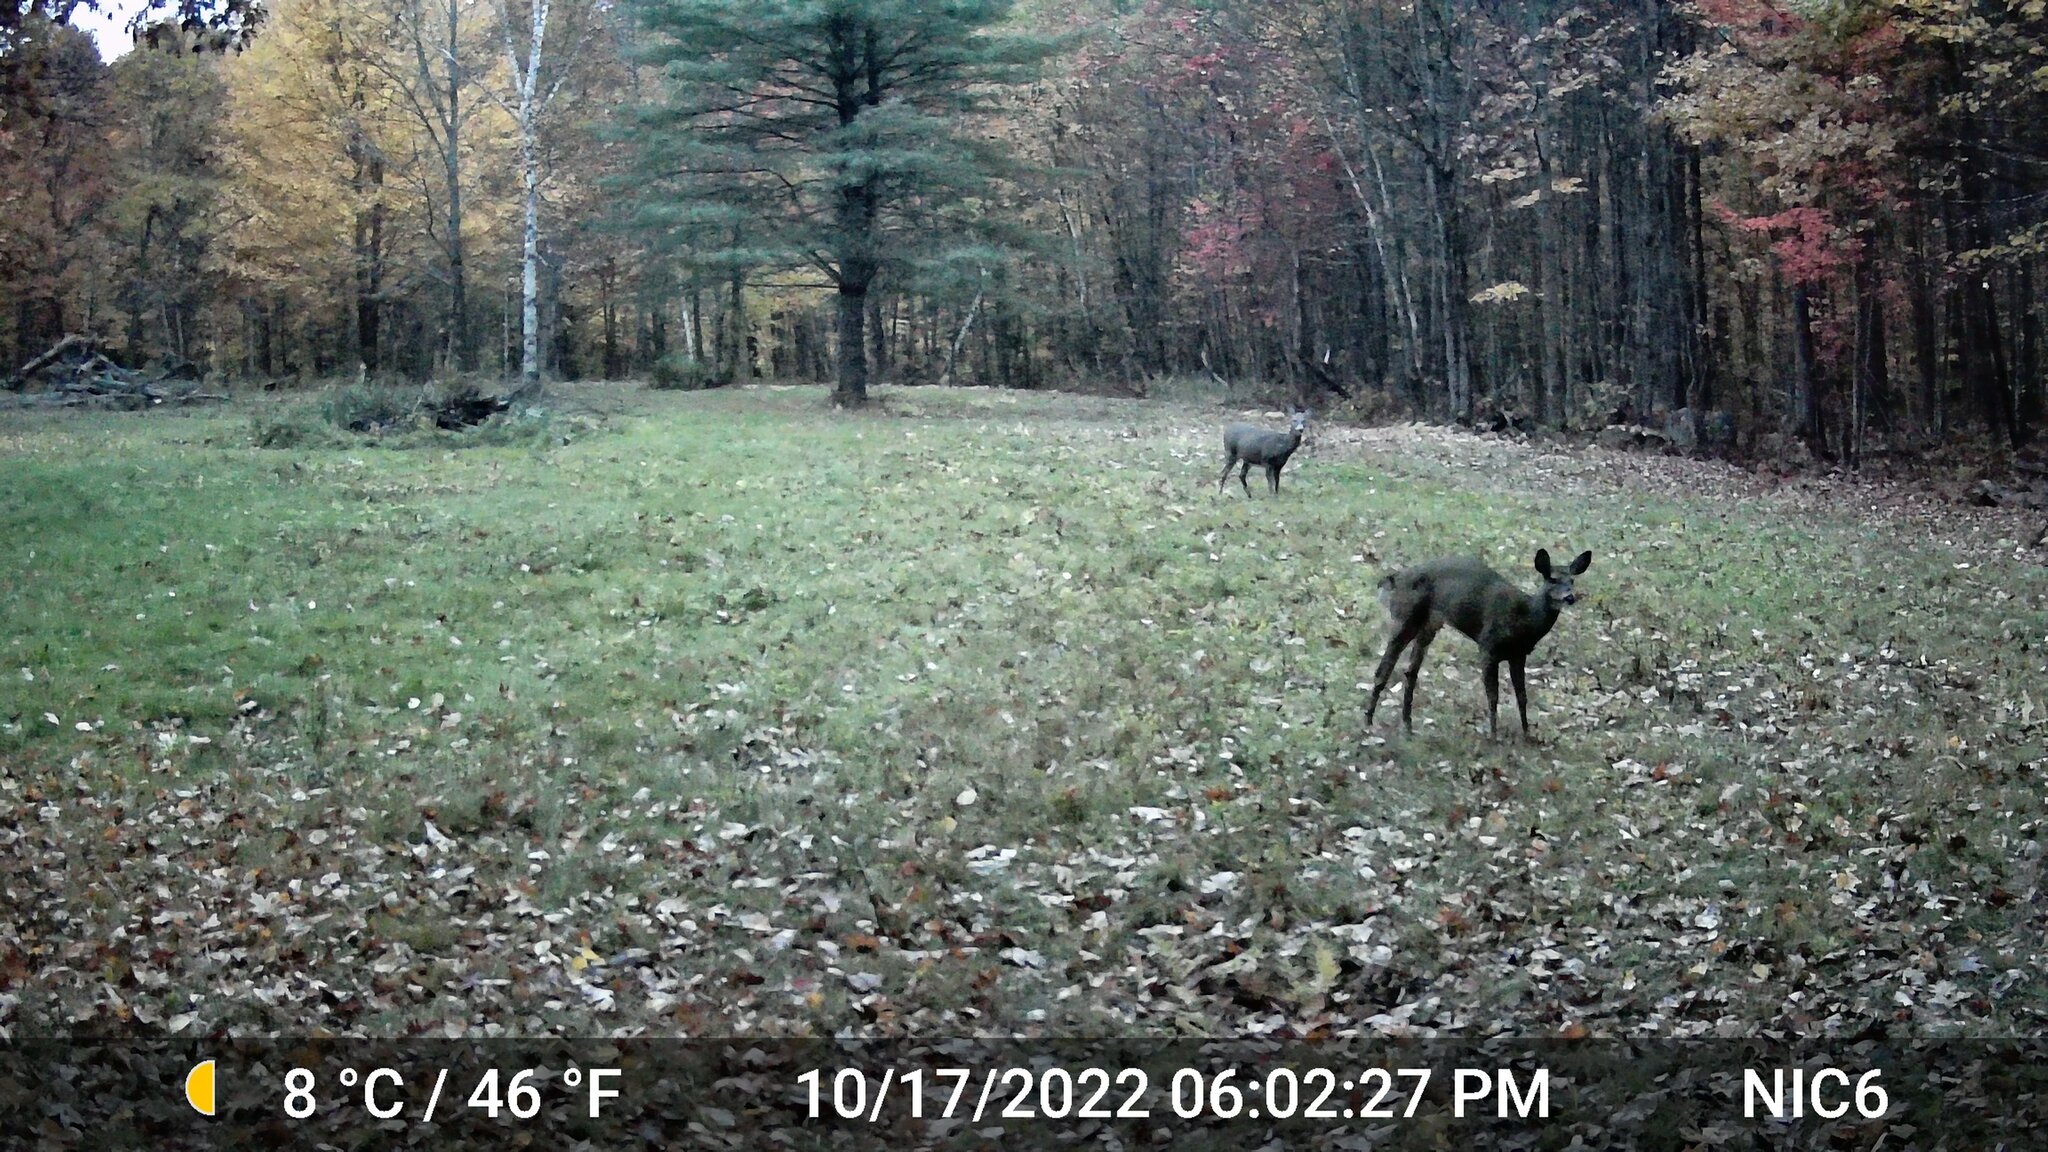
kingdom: Animalia
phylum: Chordata
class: Mammalia
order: Artiodactyla
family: Cervidae
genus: Odocoileus
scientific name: Odocoileus virginianus
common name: White-tailed deer
